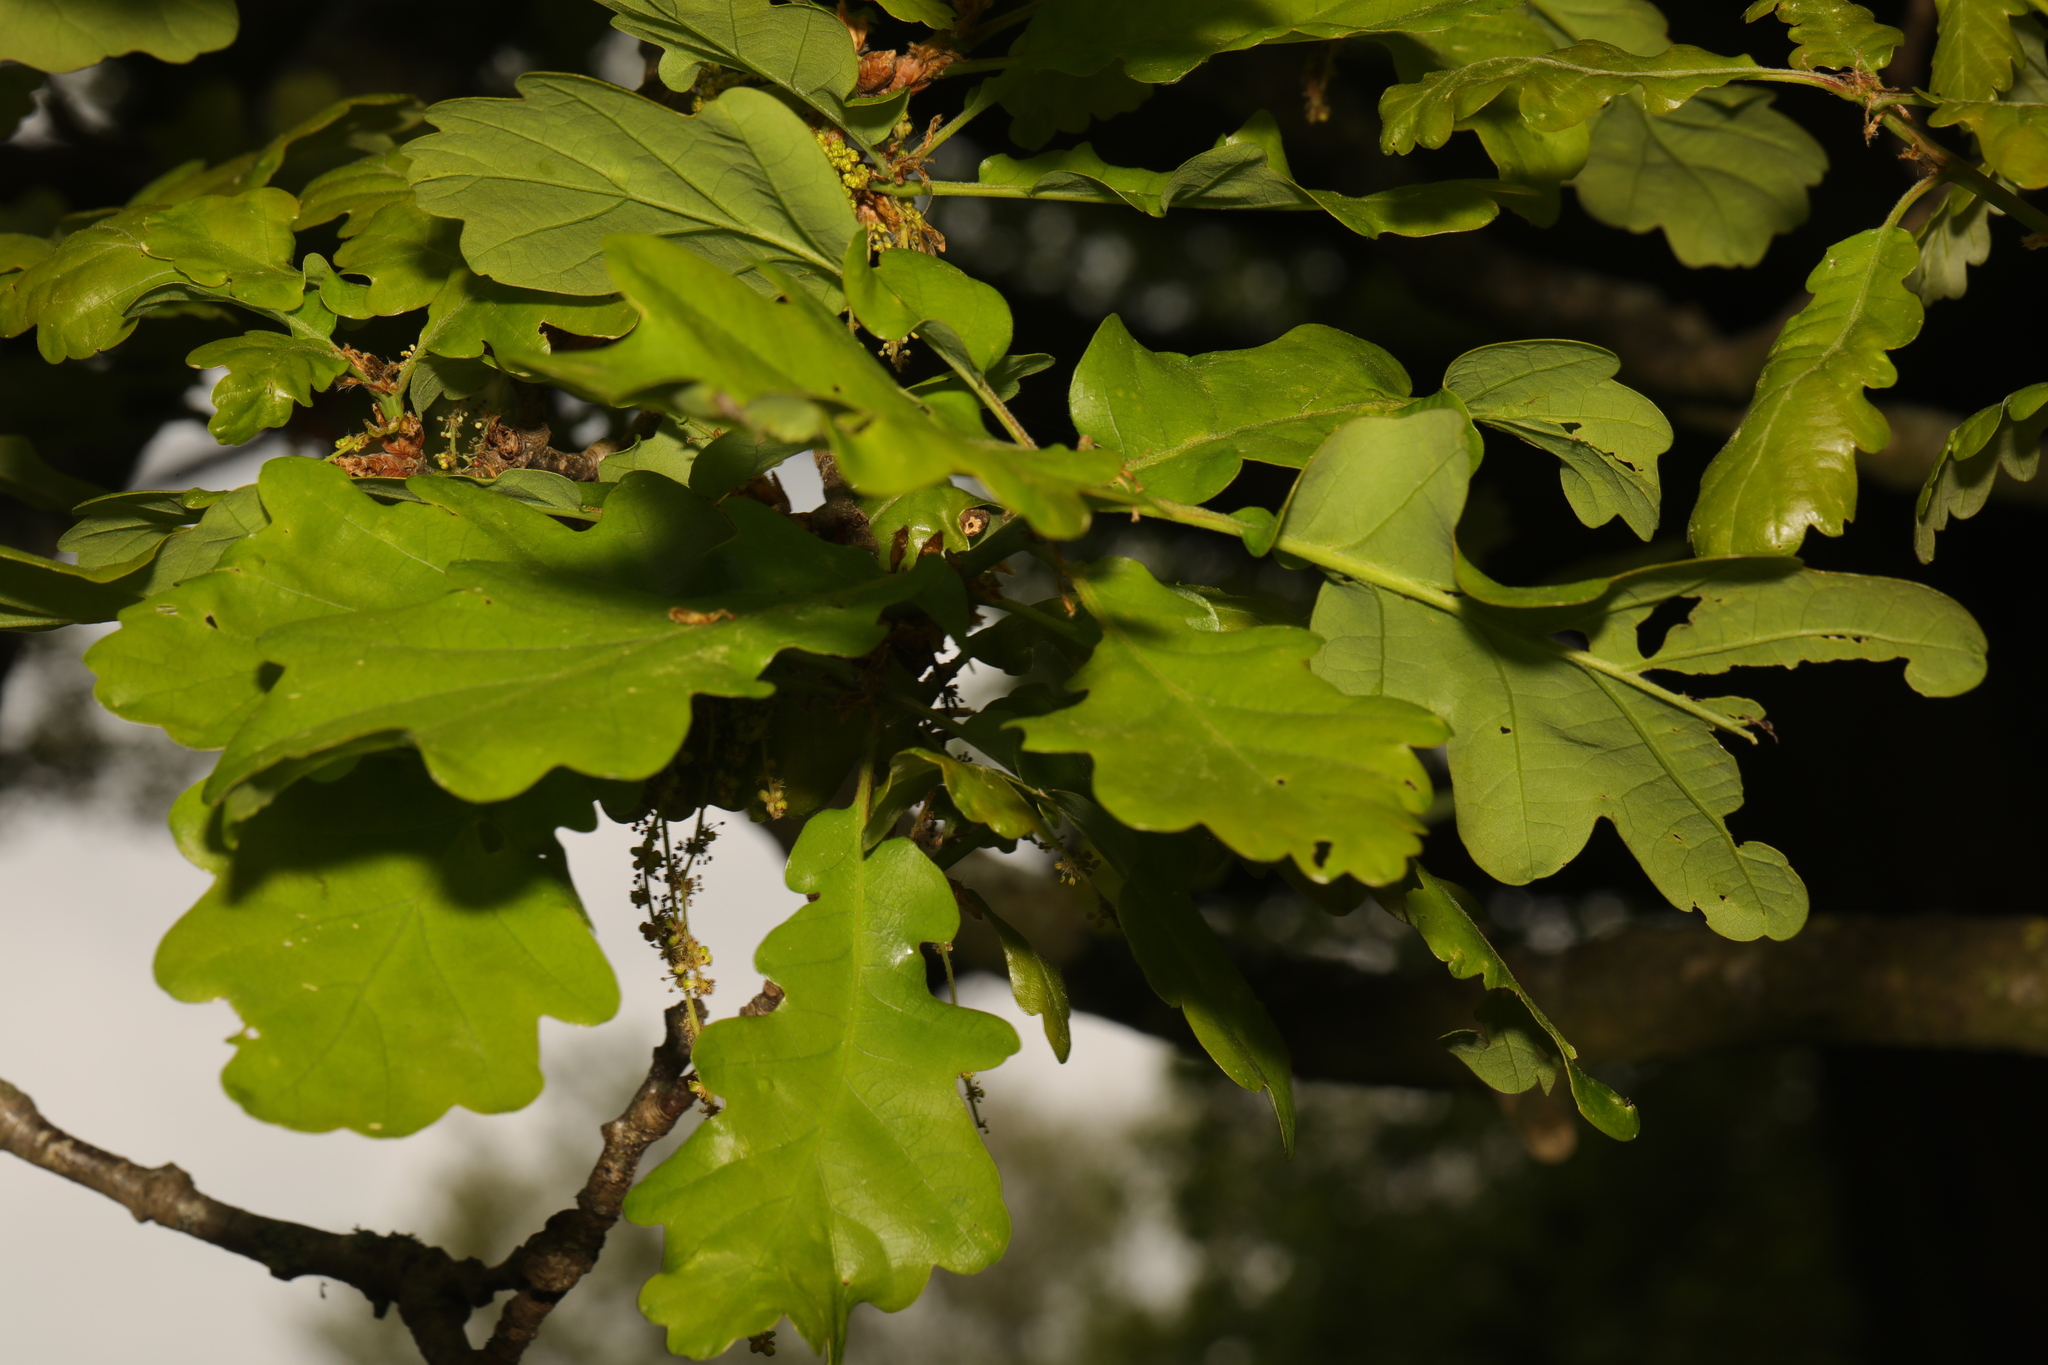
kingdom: Plantae
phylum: Tracheophyta
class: Magnoliopsida
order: Fagales
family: Fagaceae
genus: Quercus
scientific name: Quercus robur
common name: Pedunculate oak
